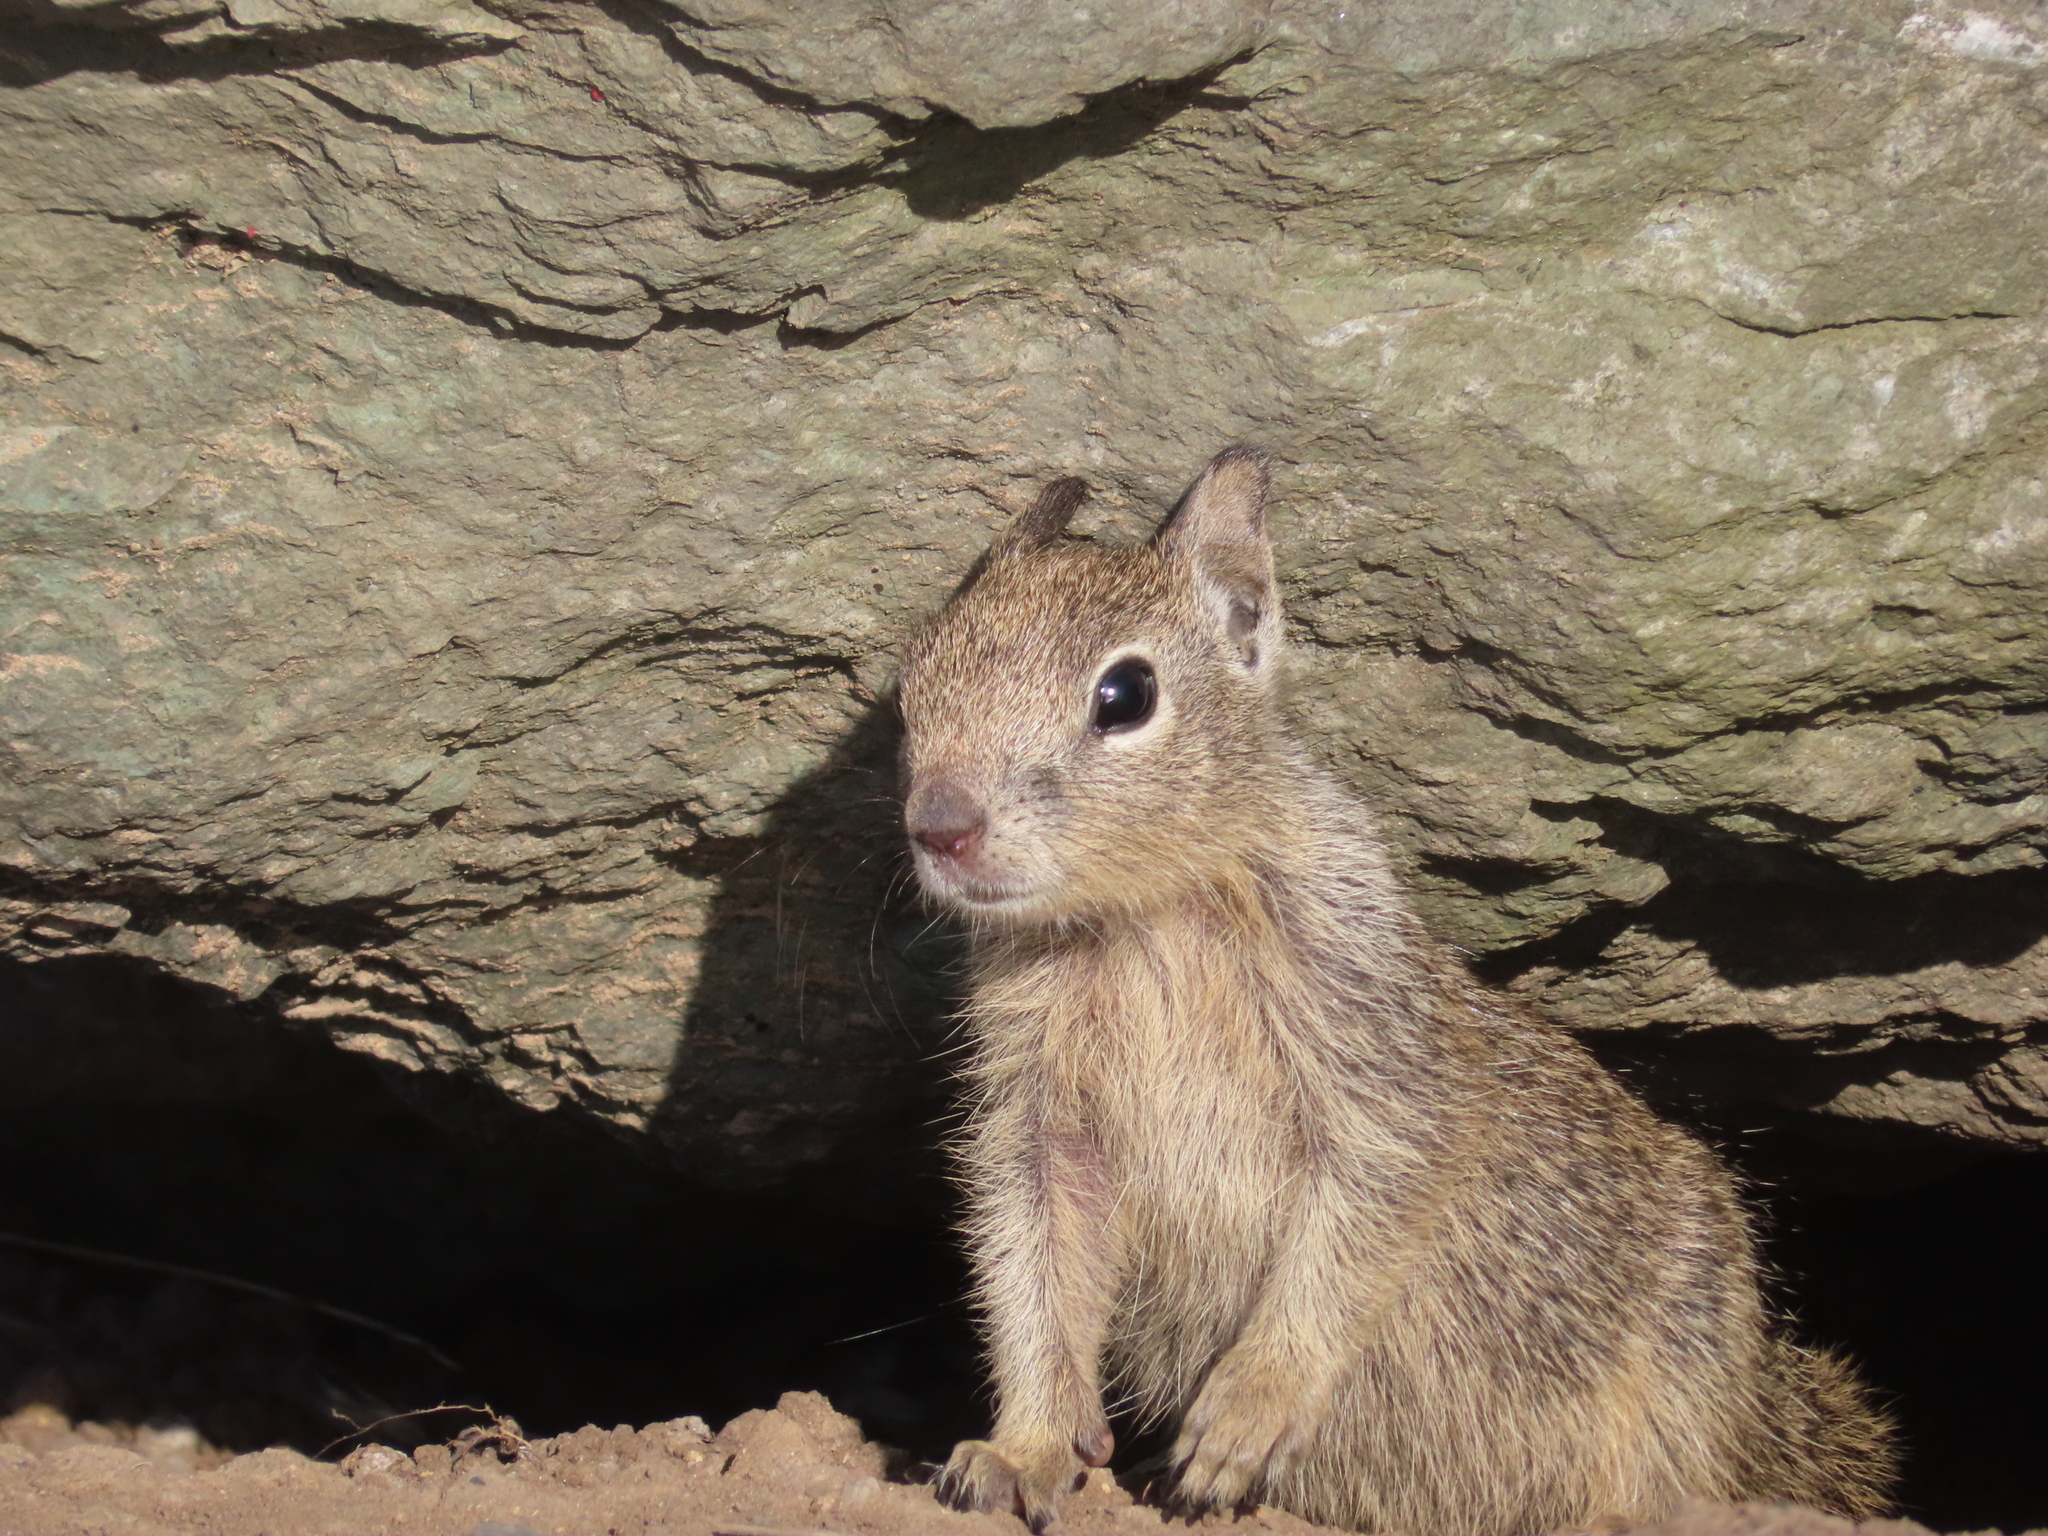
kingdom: Animalia
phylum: Chordata
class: Mammalia
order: Rodentia
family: Sciuridae
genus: Otospermophilus
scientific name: Otospermophilus beecheyi
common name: California ground squirrel
